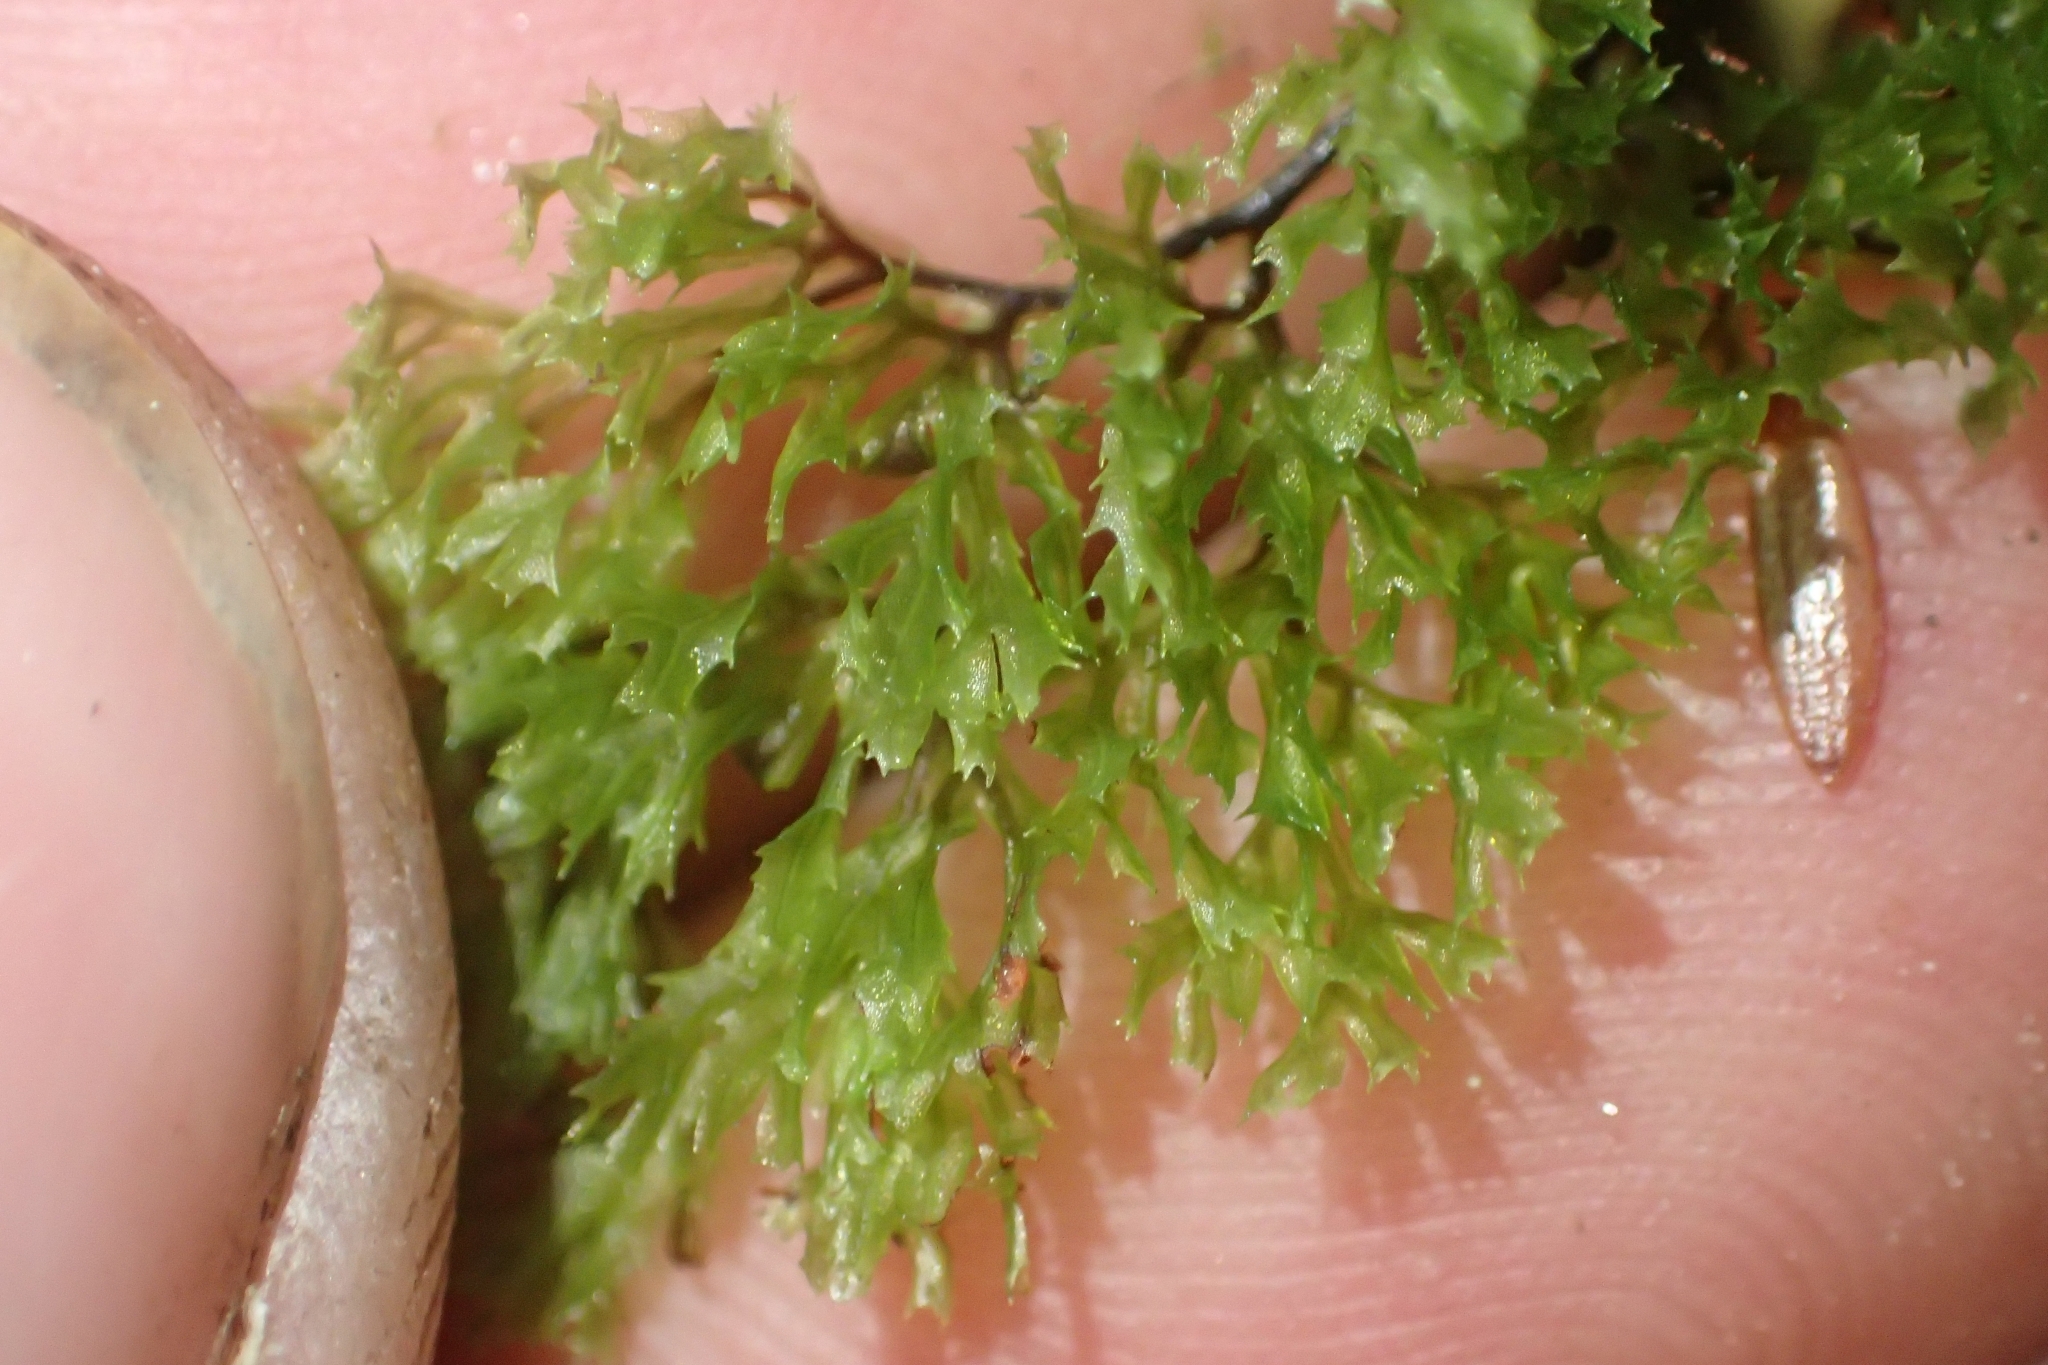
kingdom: Plantae
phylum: Tracheophyta
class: Polypodiopsida
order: Hymenophyllales
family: Hymenophyllaceae
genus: Hymenophyllum
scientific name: Hymenophyllum multifidum
